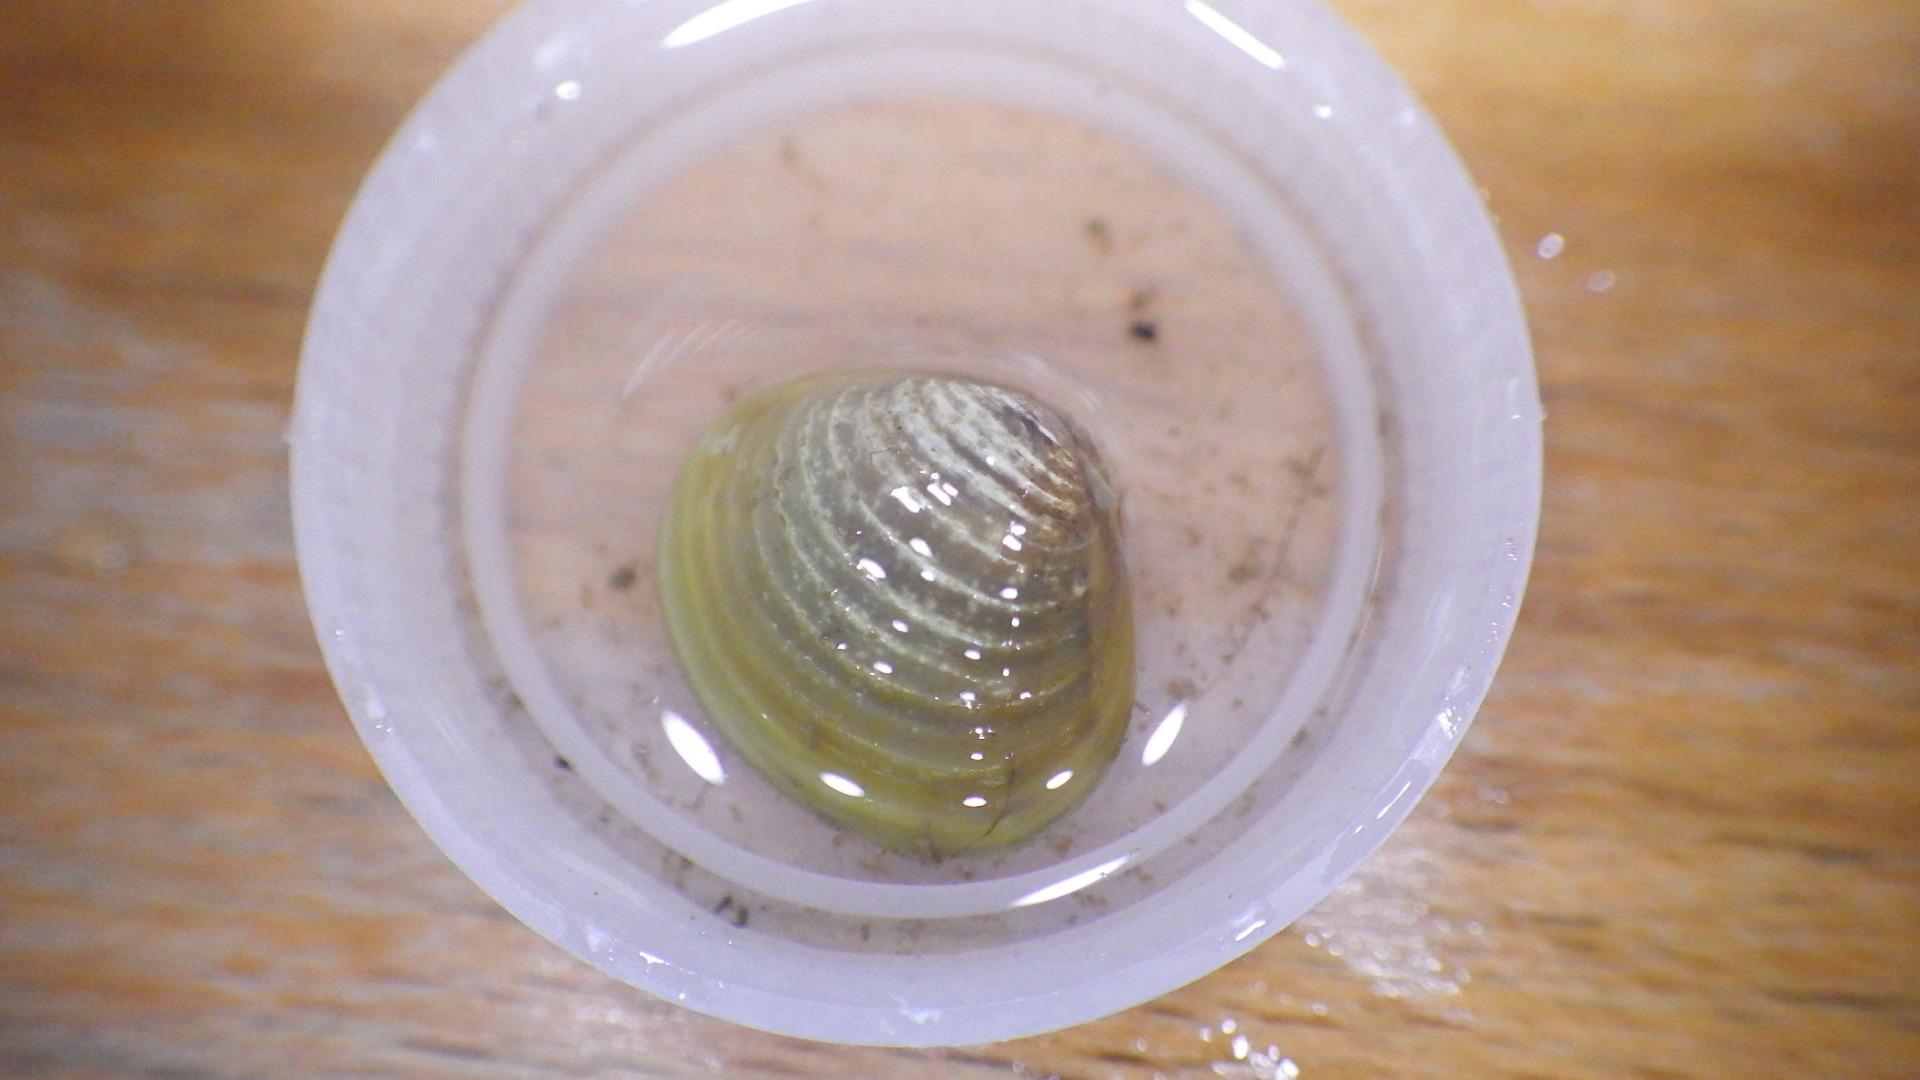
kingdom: Animalia
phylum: Mollusca
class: Bivalvia
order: Venerida
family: Cyrenidae
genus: Corbicula
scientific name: Corbicula fluminea
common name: Asian clam
